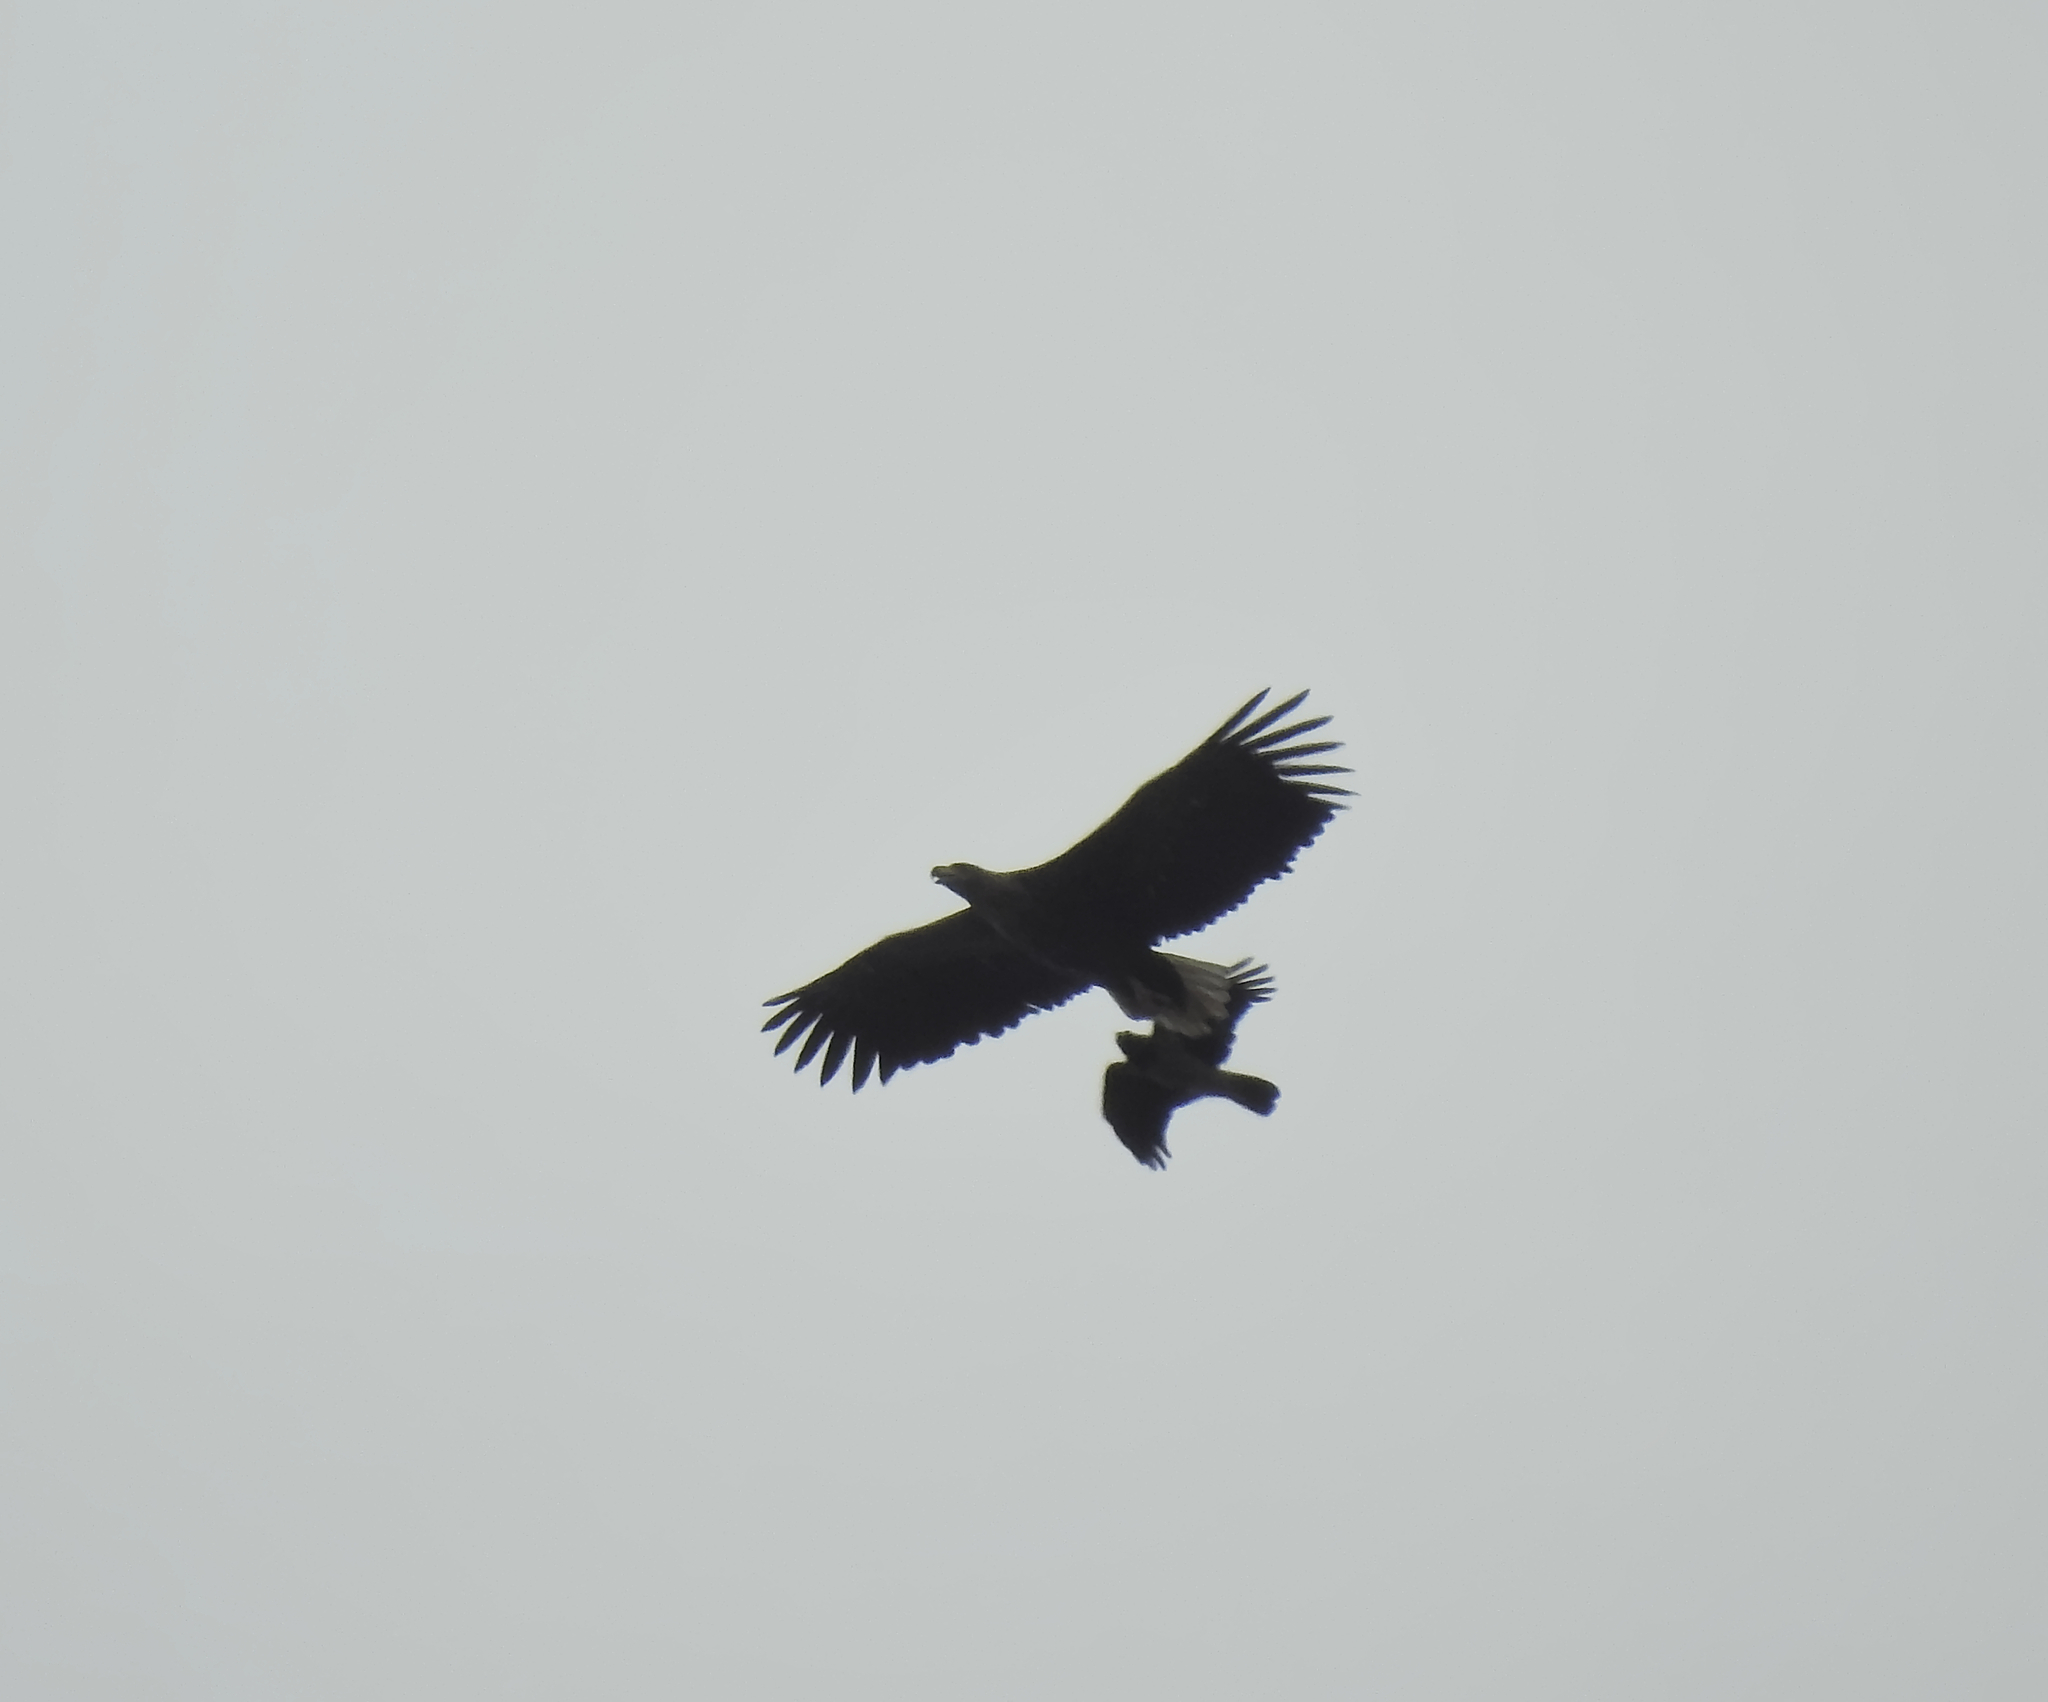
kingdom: Animalia
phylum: Chordata
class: Aves
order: Accipitriformes
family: Accipitridae
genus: Haliaeetus
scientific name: Haliaeetus albicilla
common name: White-tailed eagle
